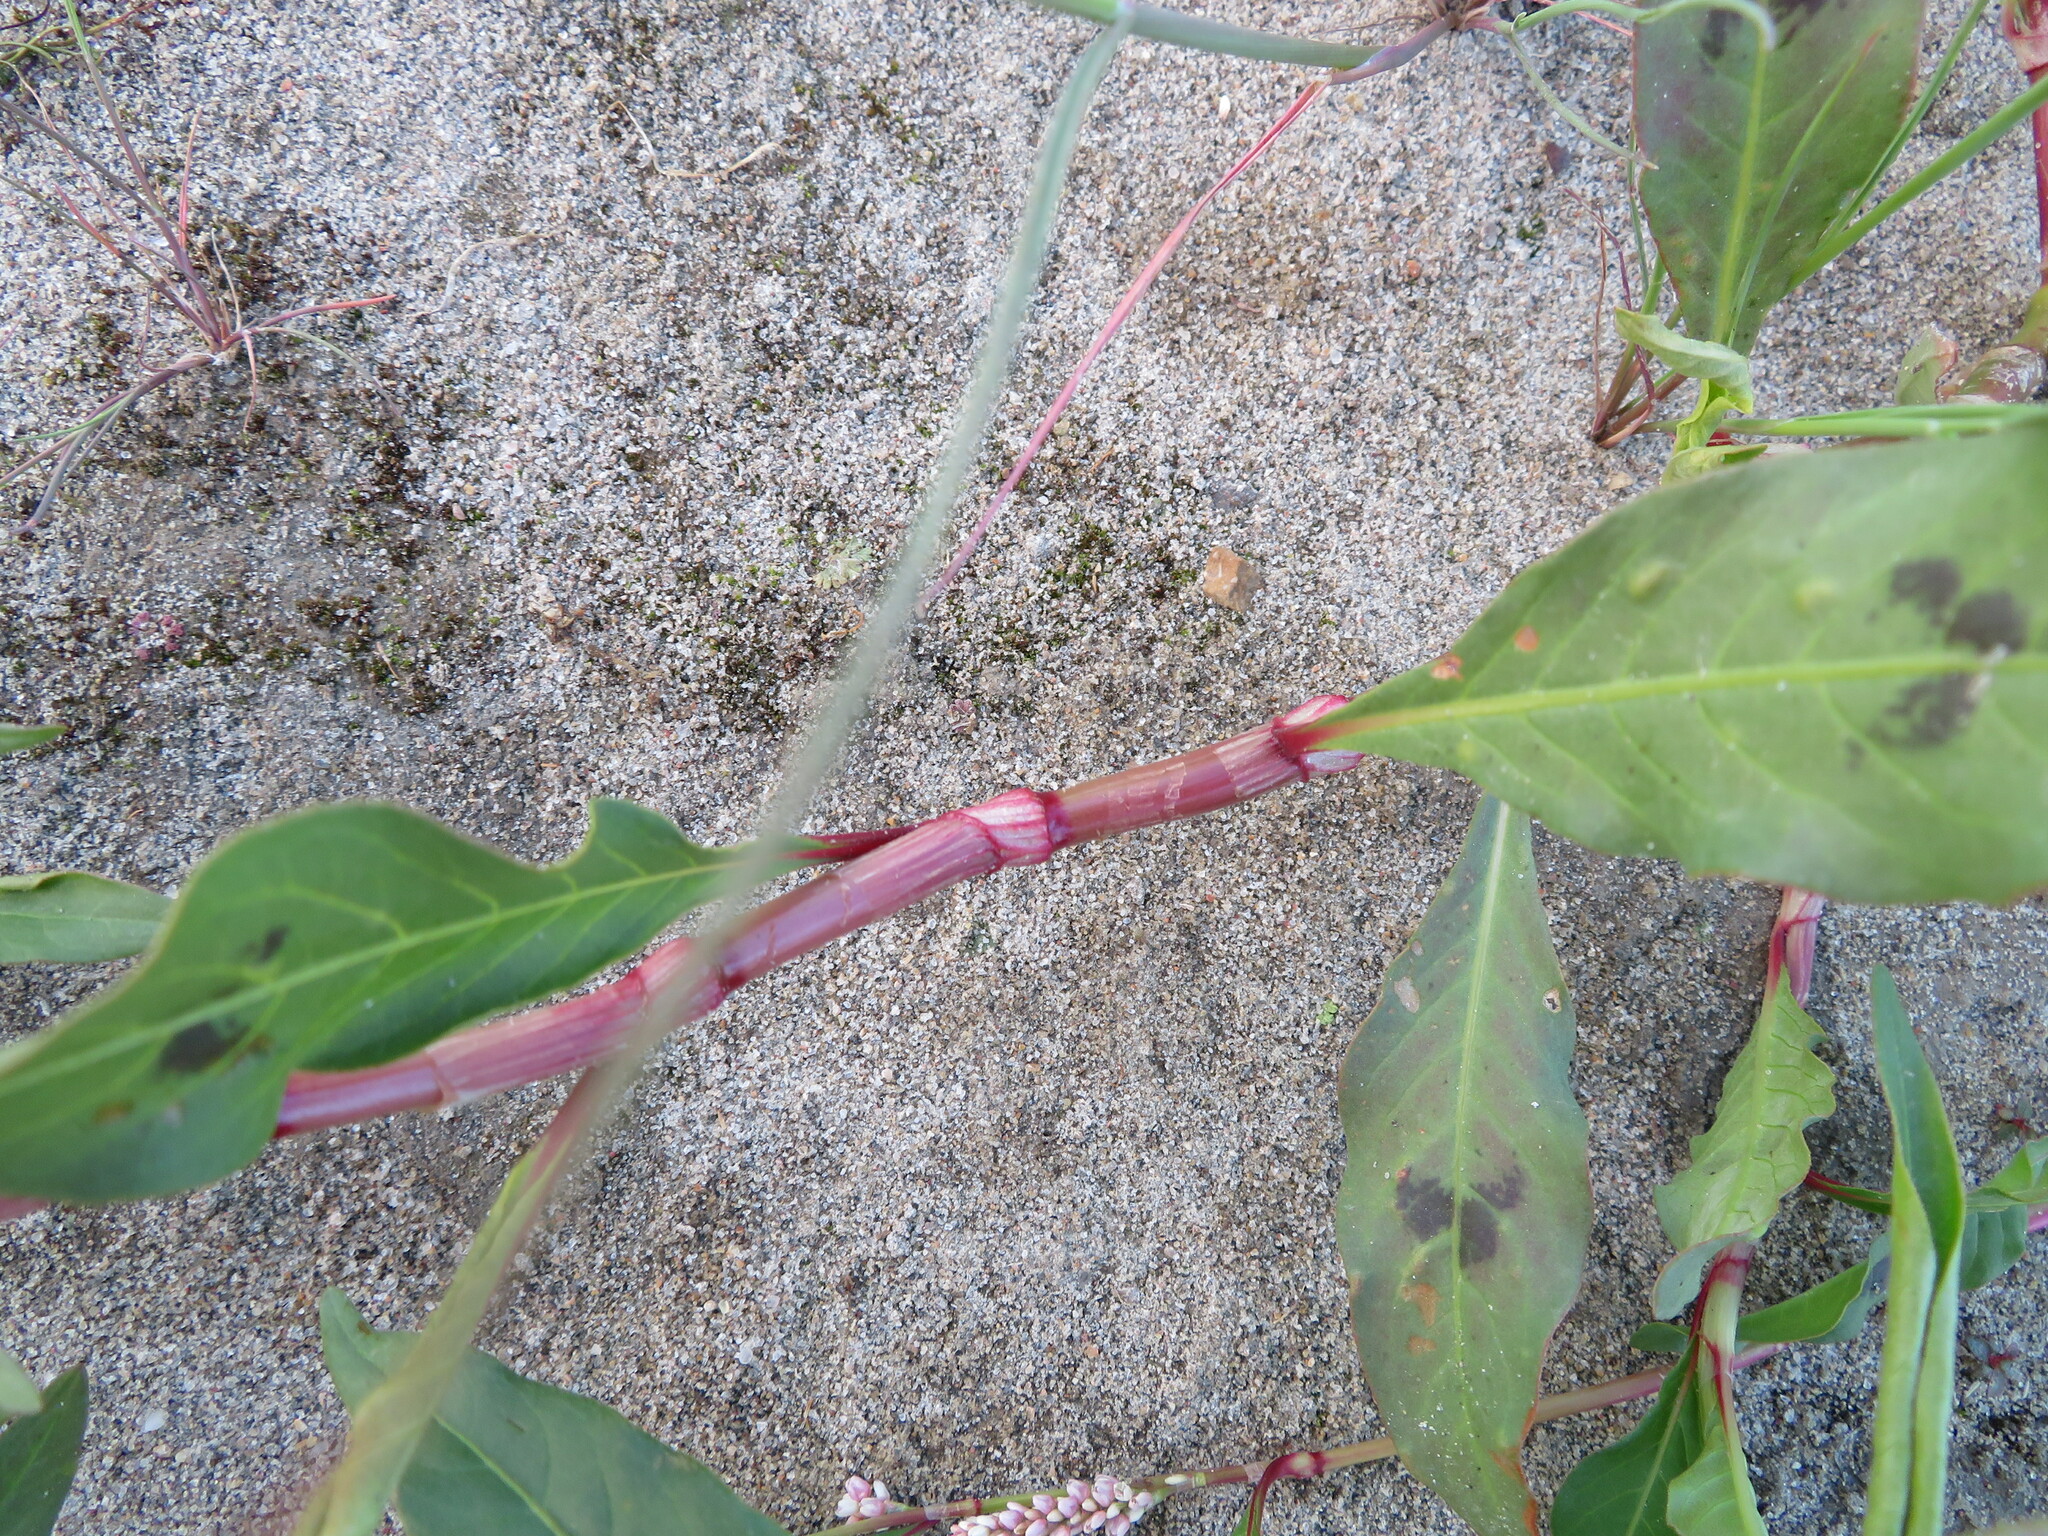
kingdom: Plantae
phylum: Tracheophyta
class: Magnoliopsida
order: Caryophyllales
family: Polygonaceae
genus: Persicaria
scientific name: Persicaria lapathifolia
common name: Curlytop knotweed
